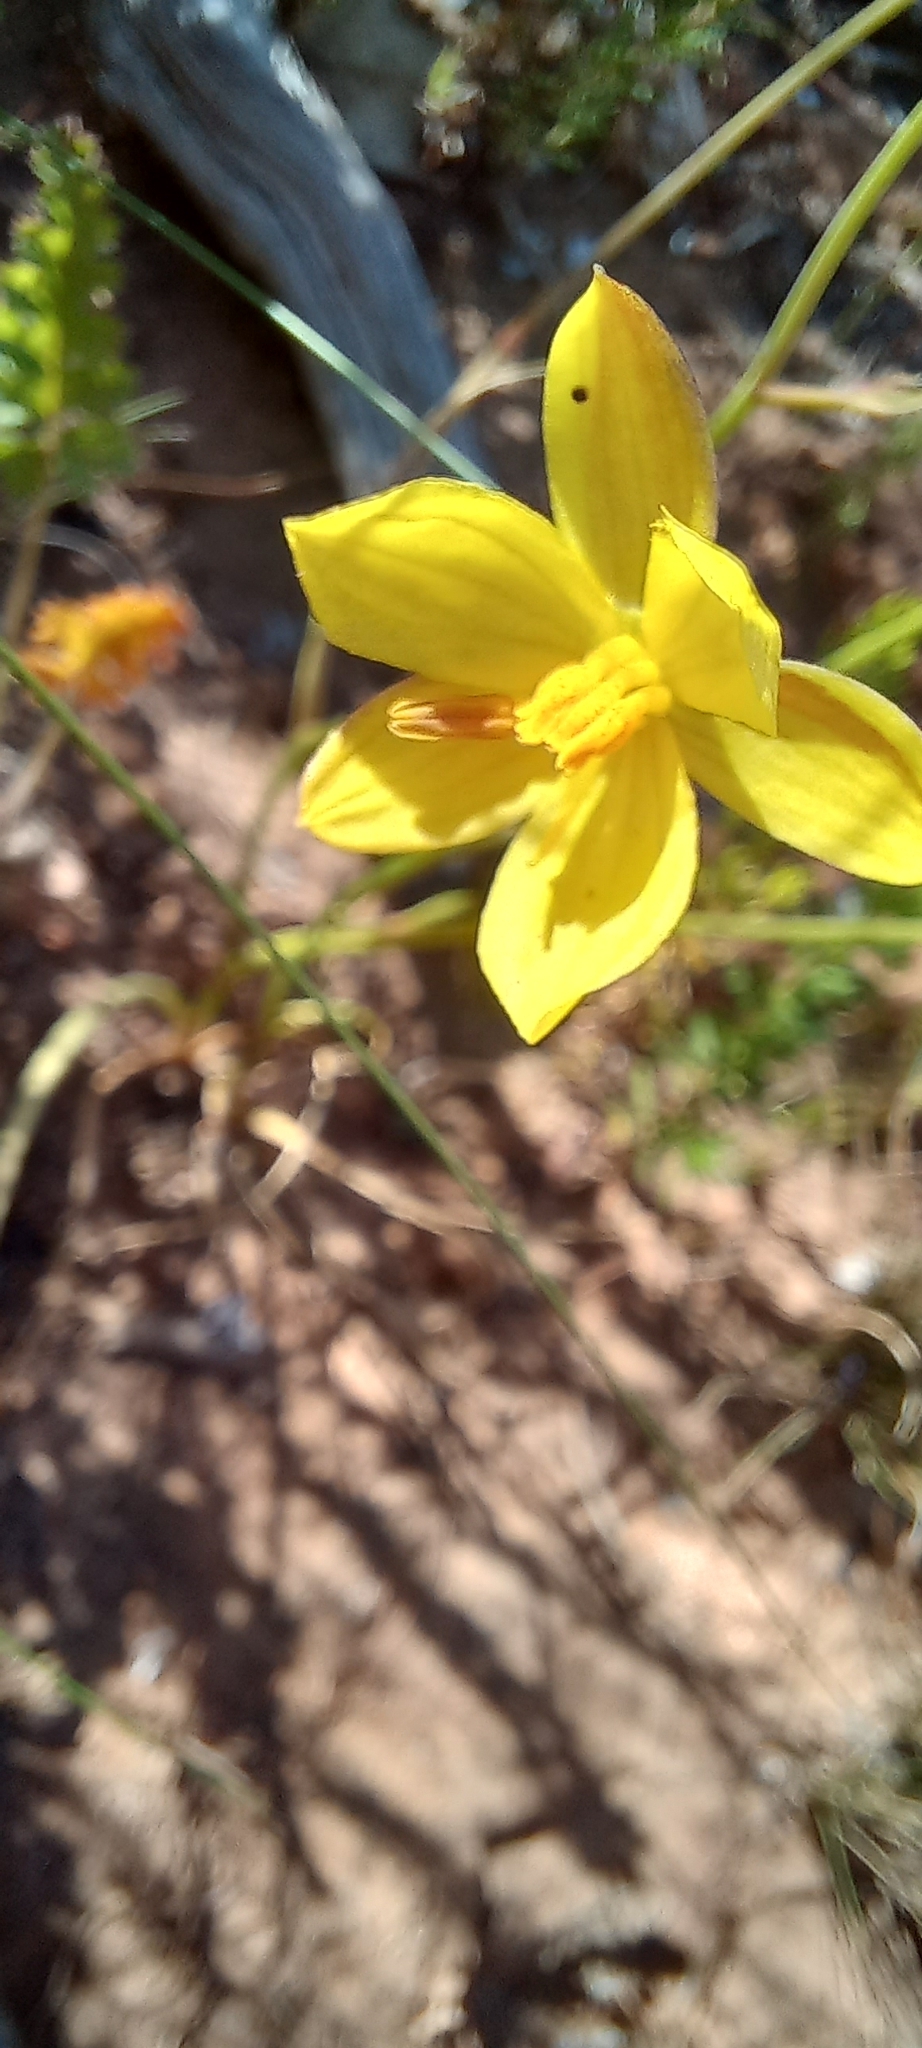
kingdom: Plantae
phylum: Tracheophyta
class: Liliopsida
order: Asparagales
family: Tecophilaeaceae
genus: Cyanella
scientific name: Cyanella lutea
